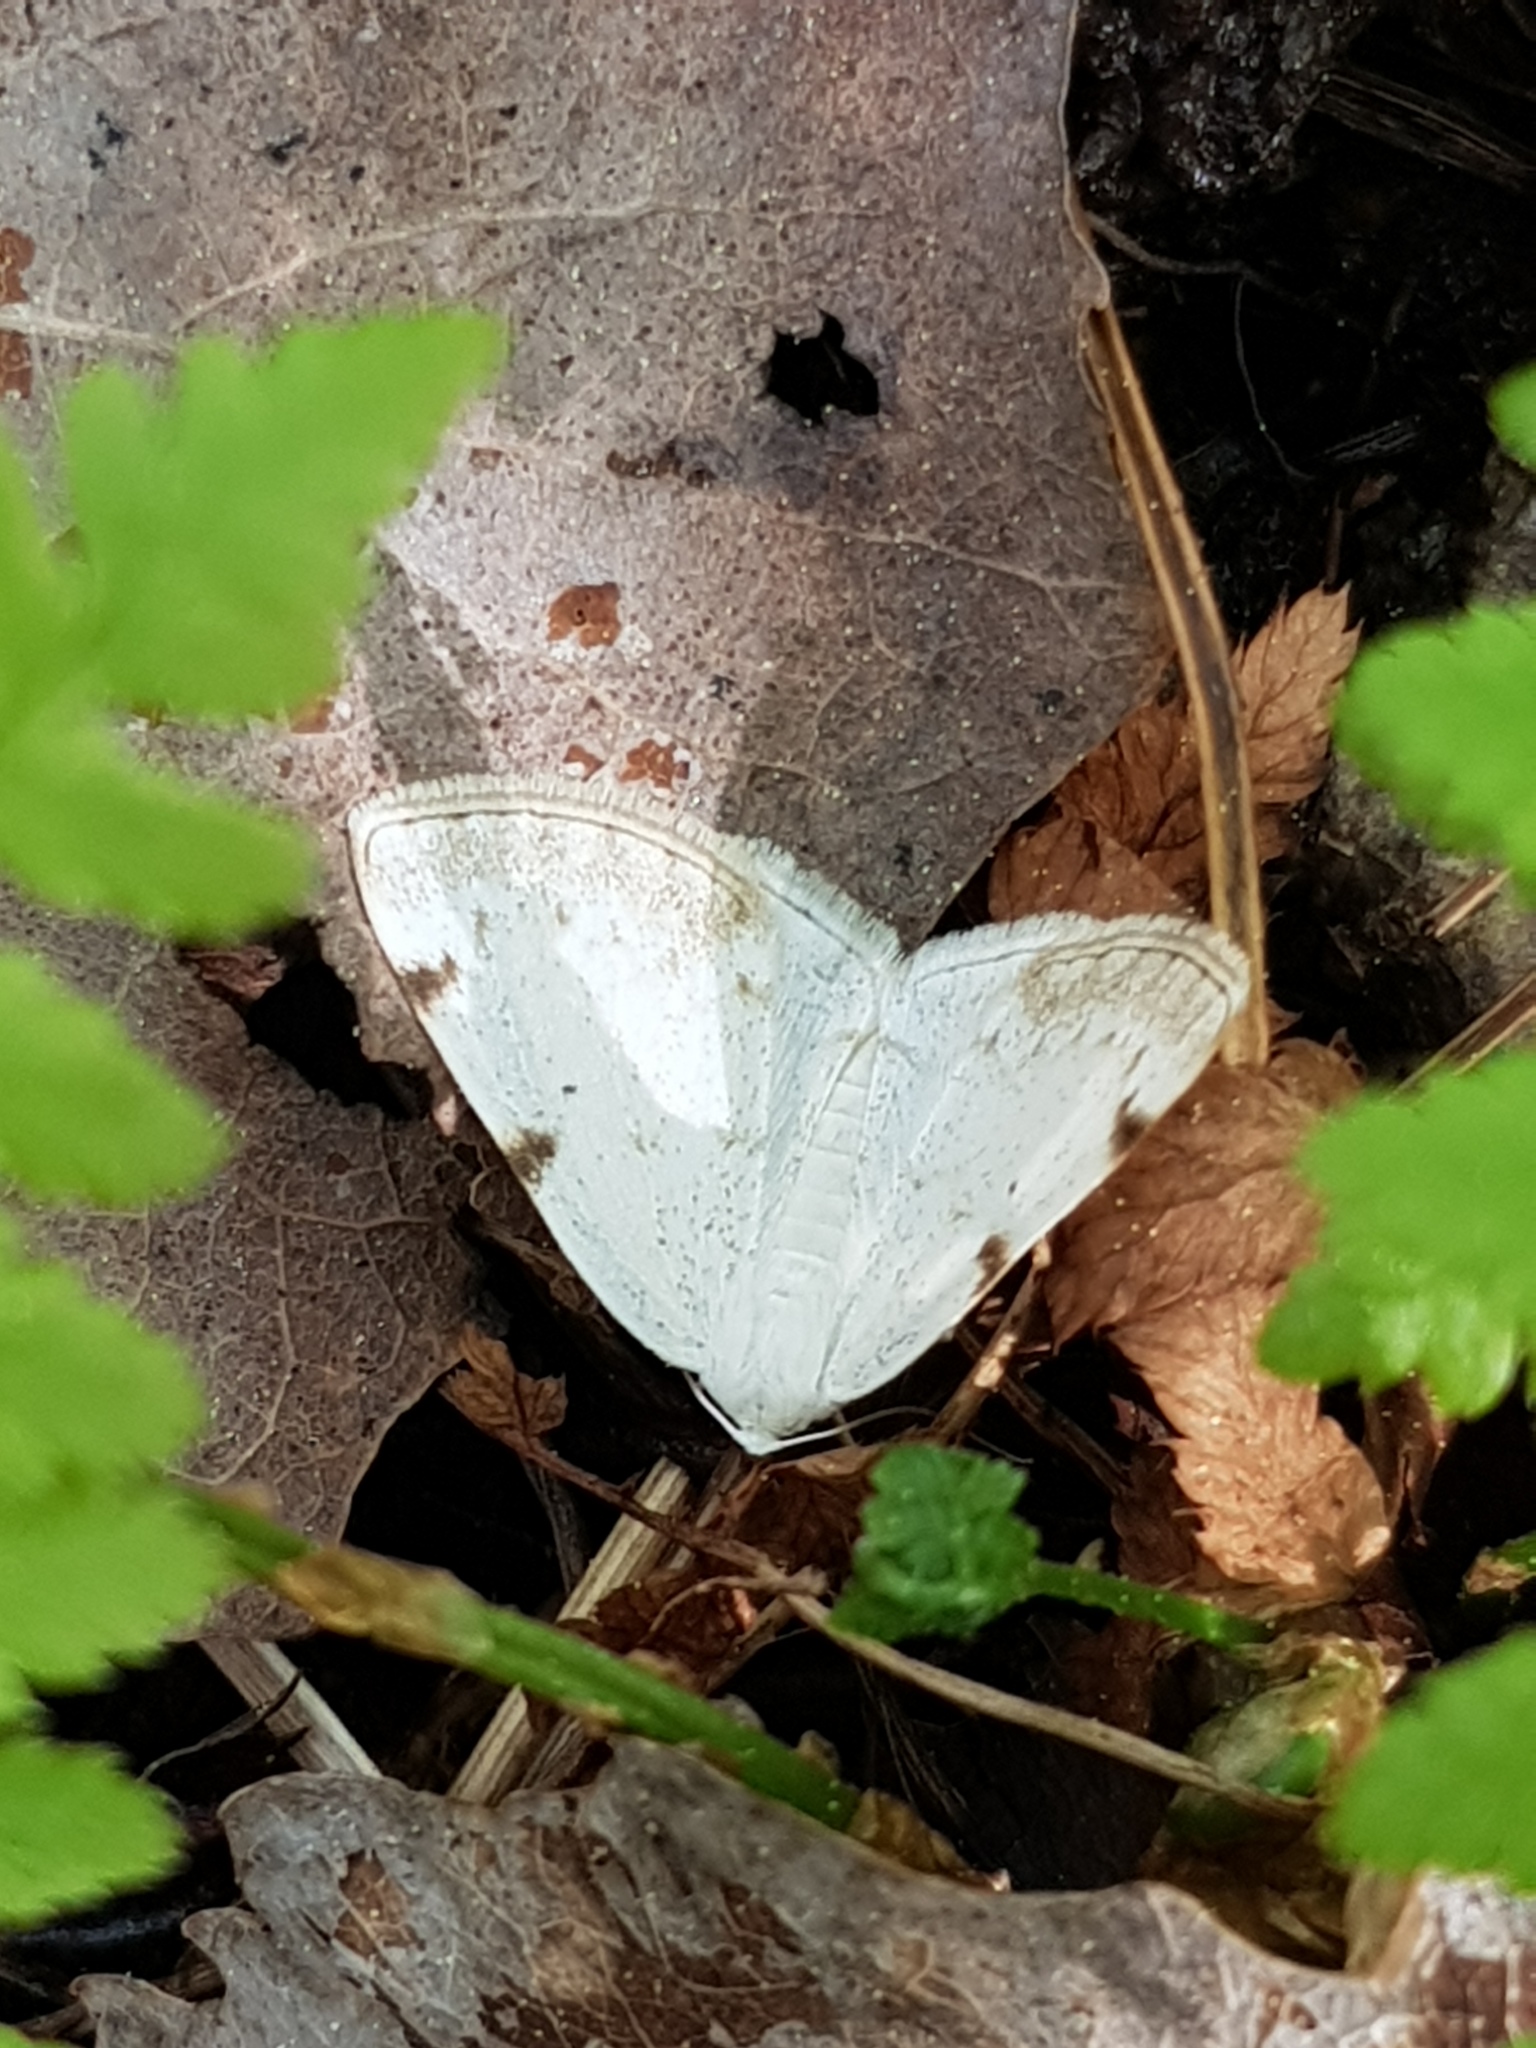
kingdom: Animalia
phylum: Arthropoda
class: Insecta
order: Lepidoptera
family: Geometridae
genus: Lomographa
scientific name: Lomographa bimaculata
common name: White-pinion spotted
